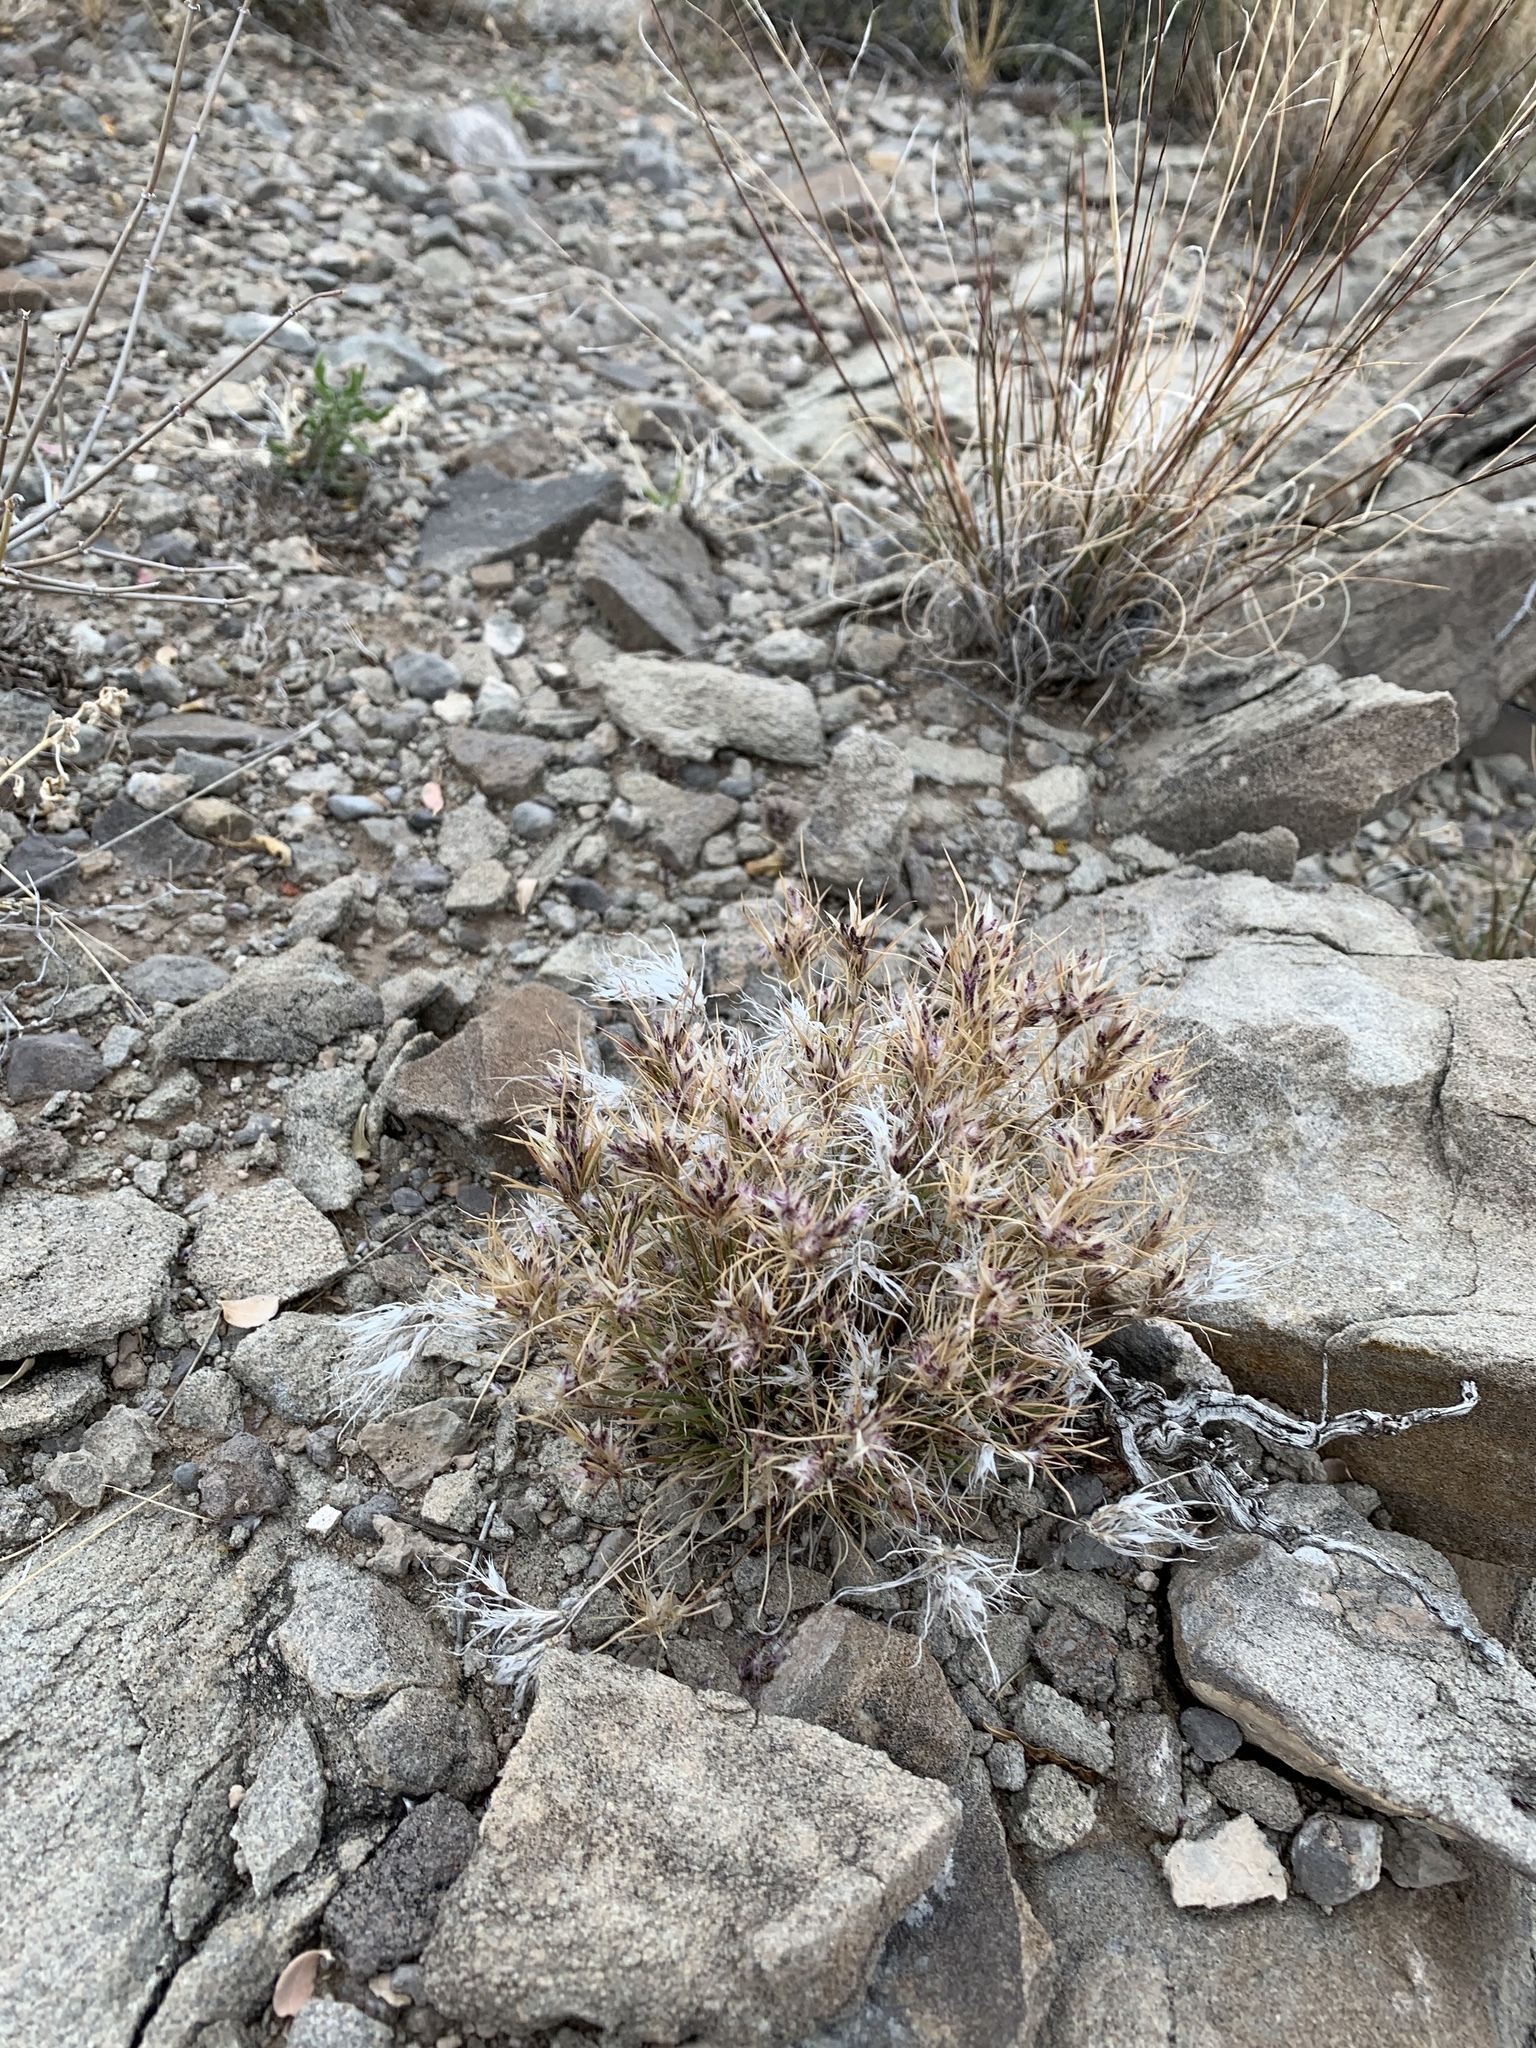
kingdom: Plantae
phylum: Tracheophyta
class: Liliopsida
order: Poales
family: Poaceae
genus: Dasyochloa
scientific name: Dasyochloa pulchella
